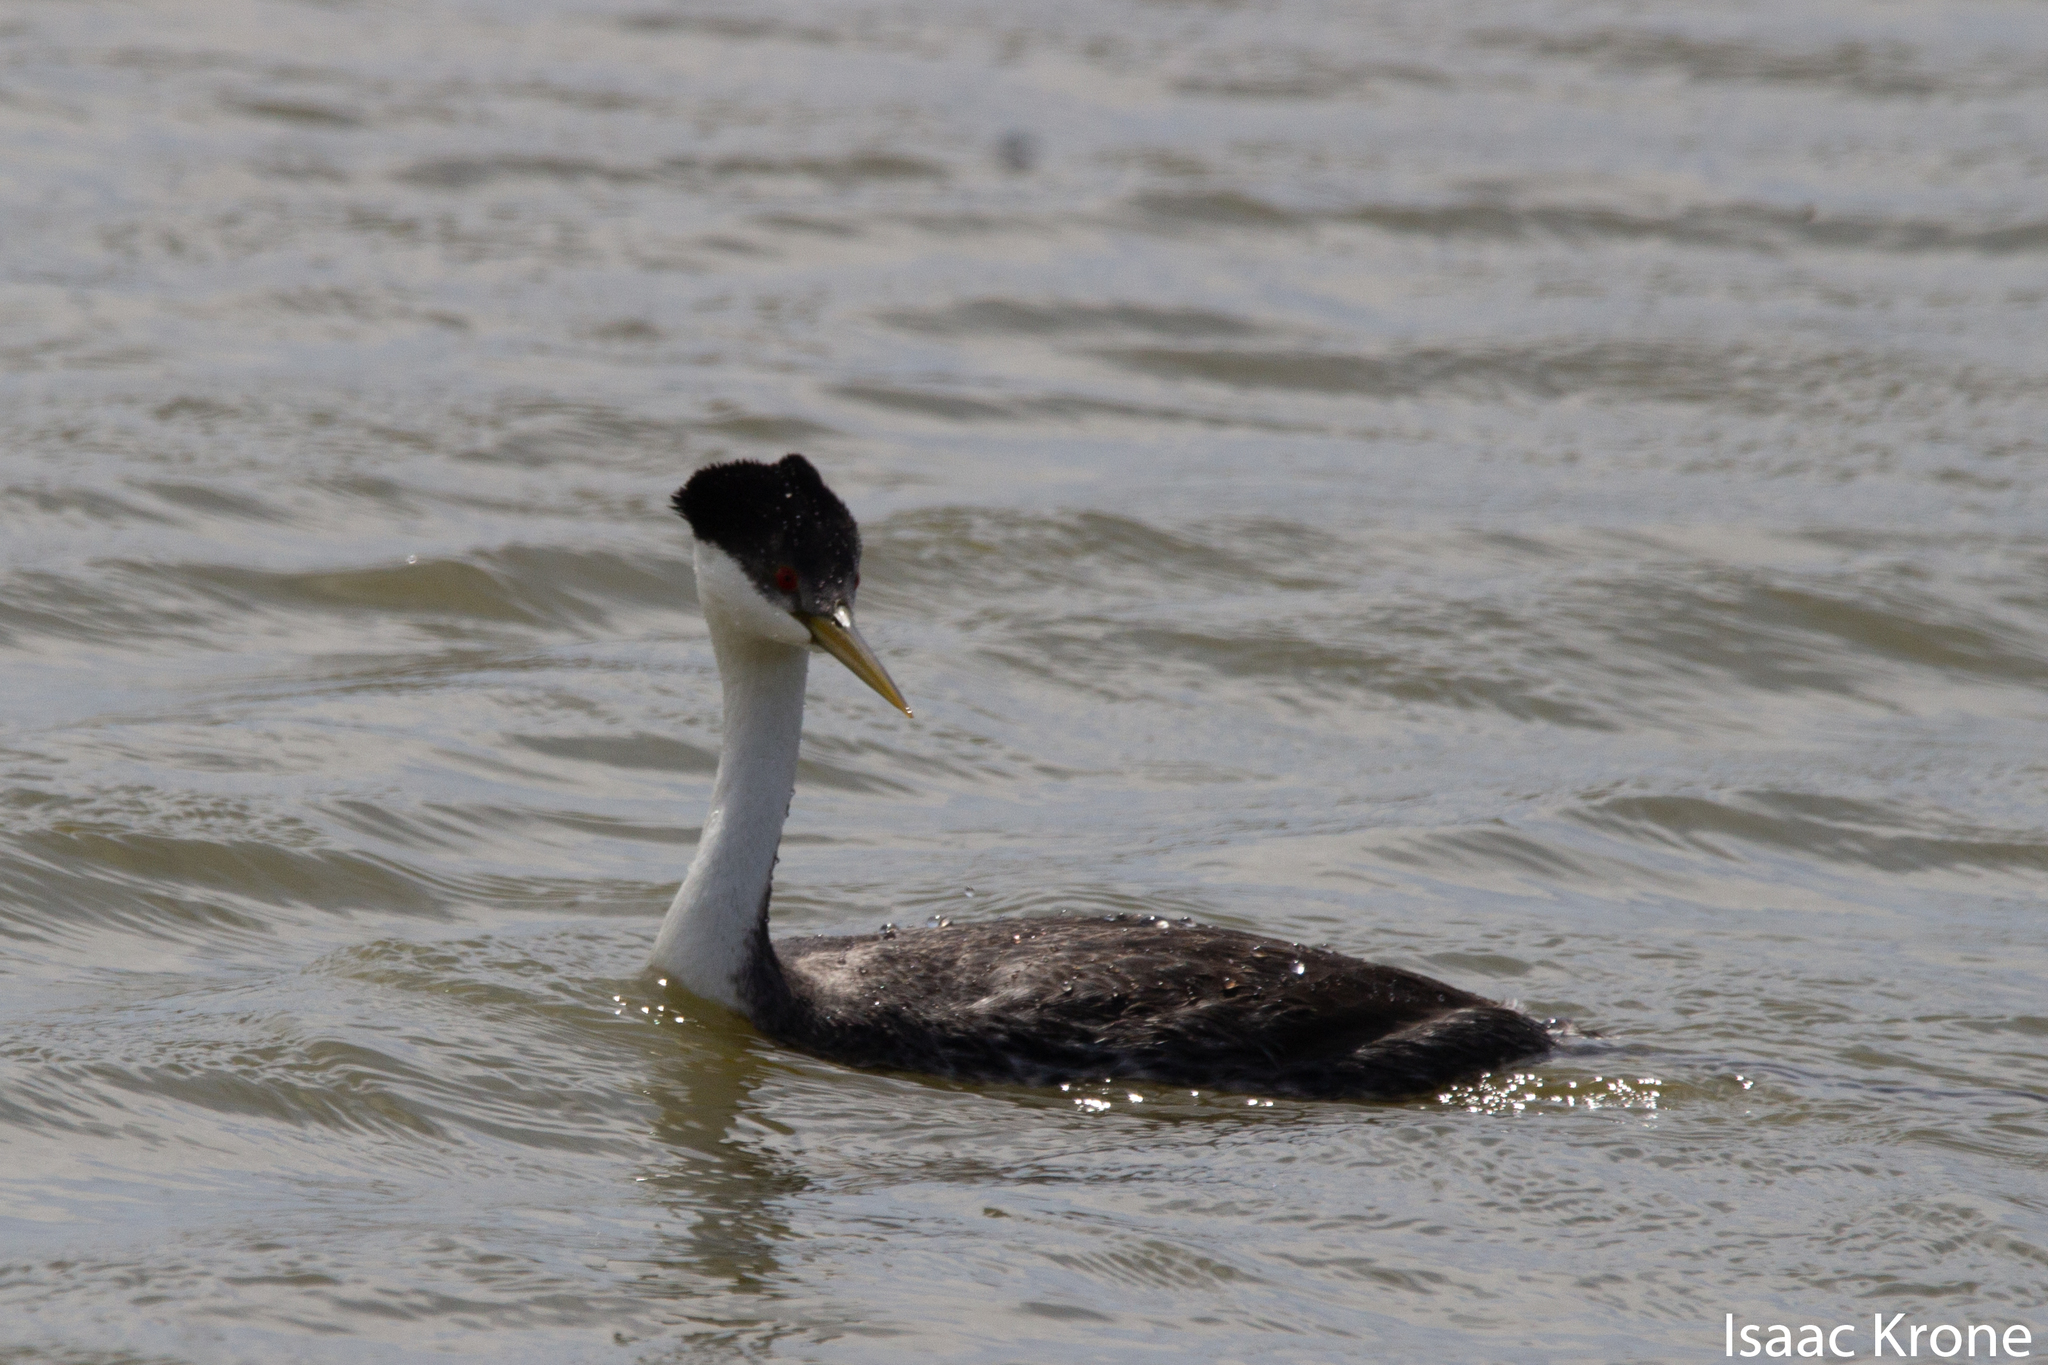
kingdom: Animalia
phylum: Chordata
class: Aves
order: Podicipediformes
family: Podicipedidae
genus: Aechmophorus
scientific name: Aechmophorus occidentalis
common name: Western grebe
